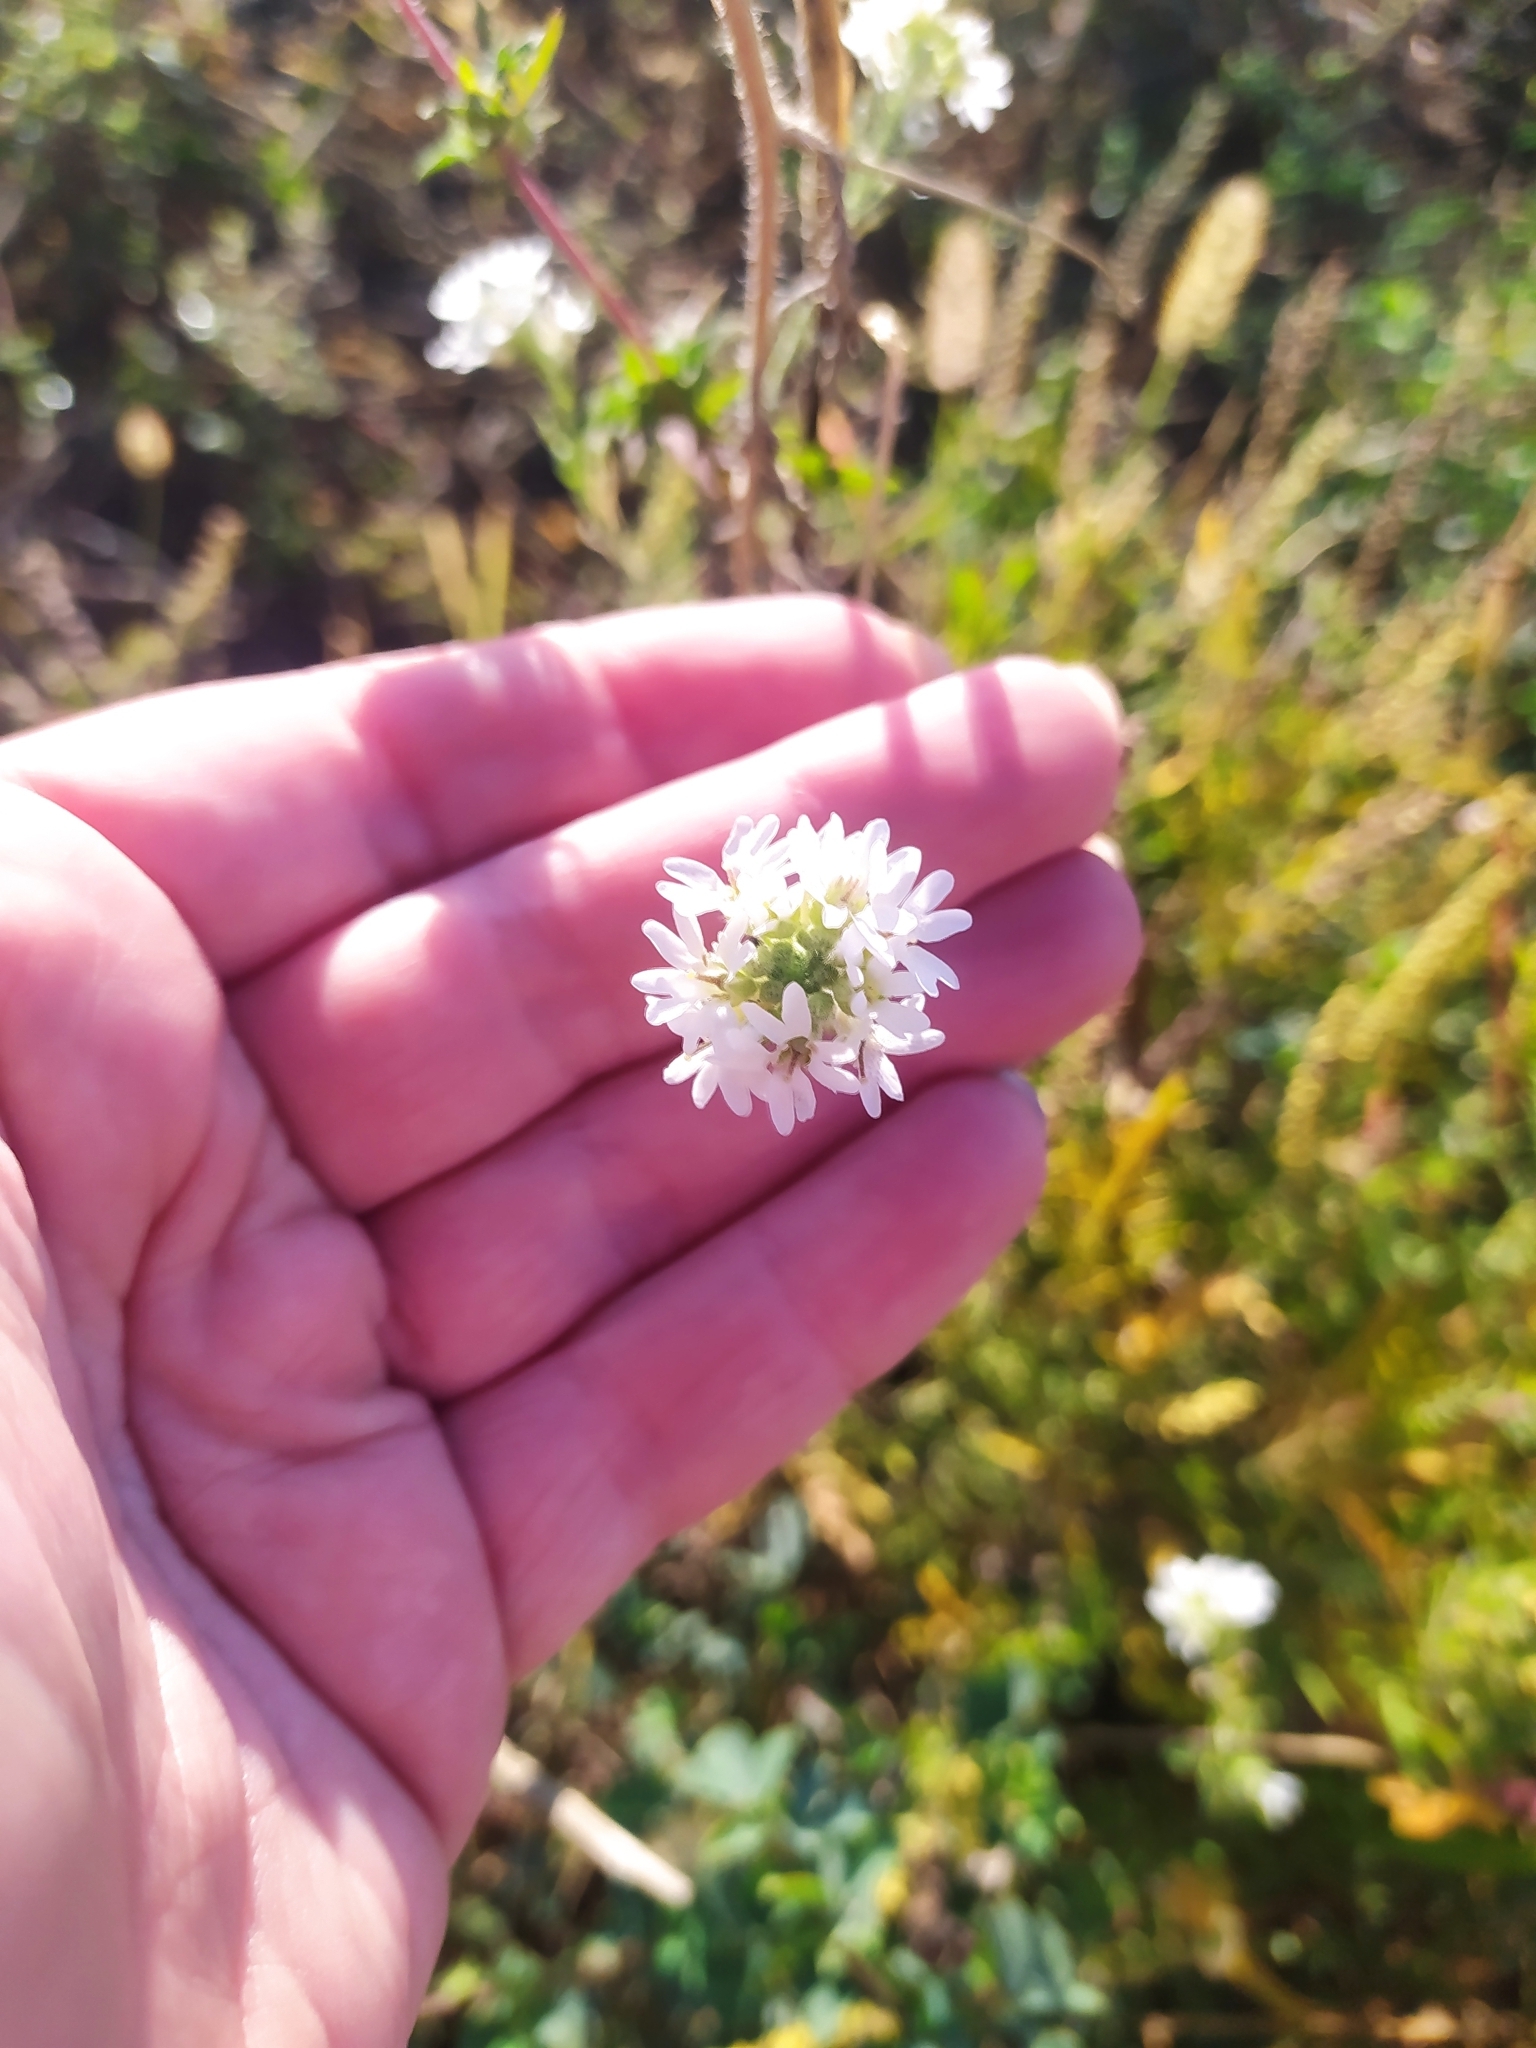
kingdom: Plantae
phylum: Tracheophyta
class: Magnoliopsida
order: Brassicales
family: Brassicaceae
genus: Berteroa
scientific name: Berteroa incana
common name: Hoary alison
